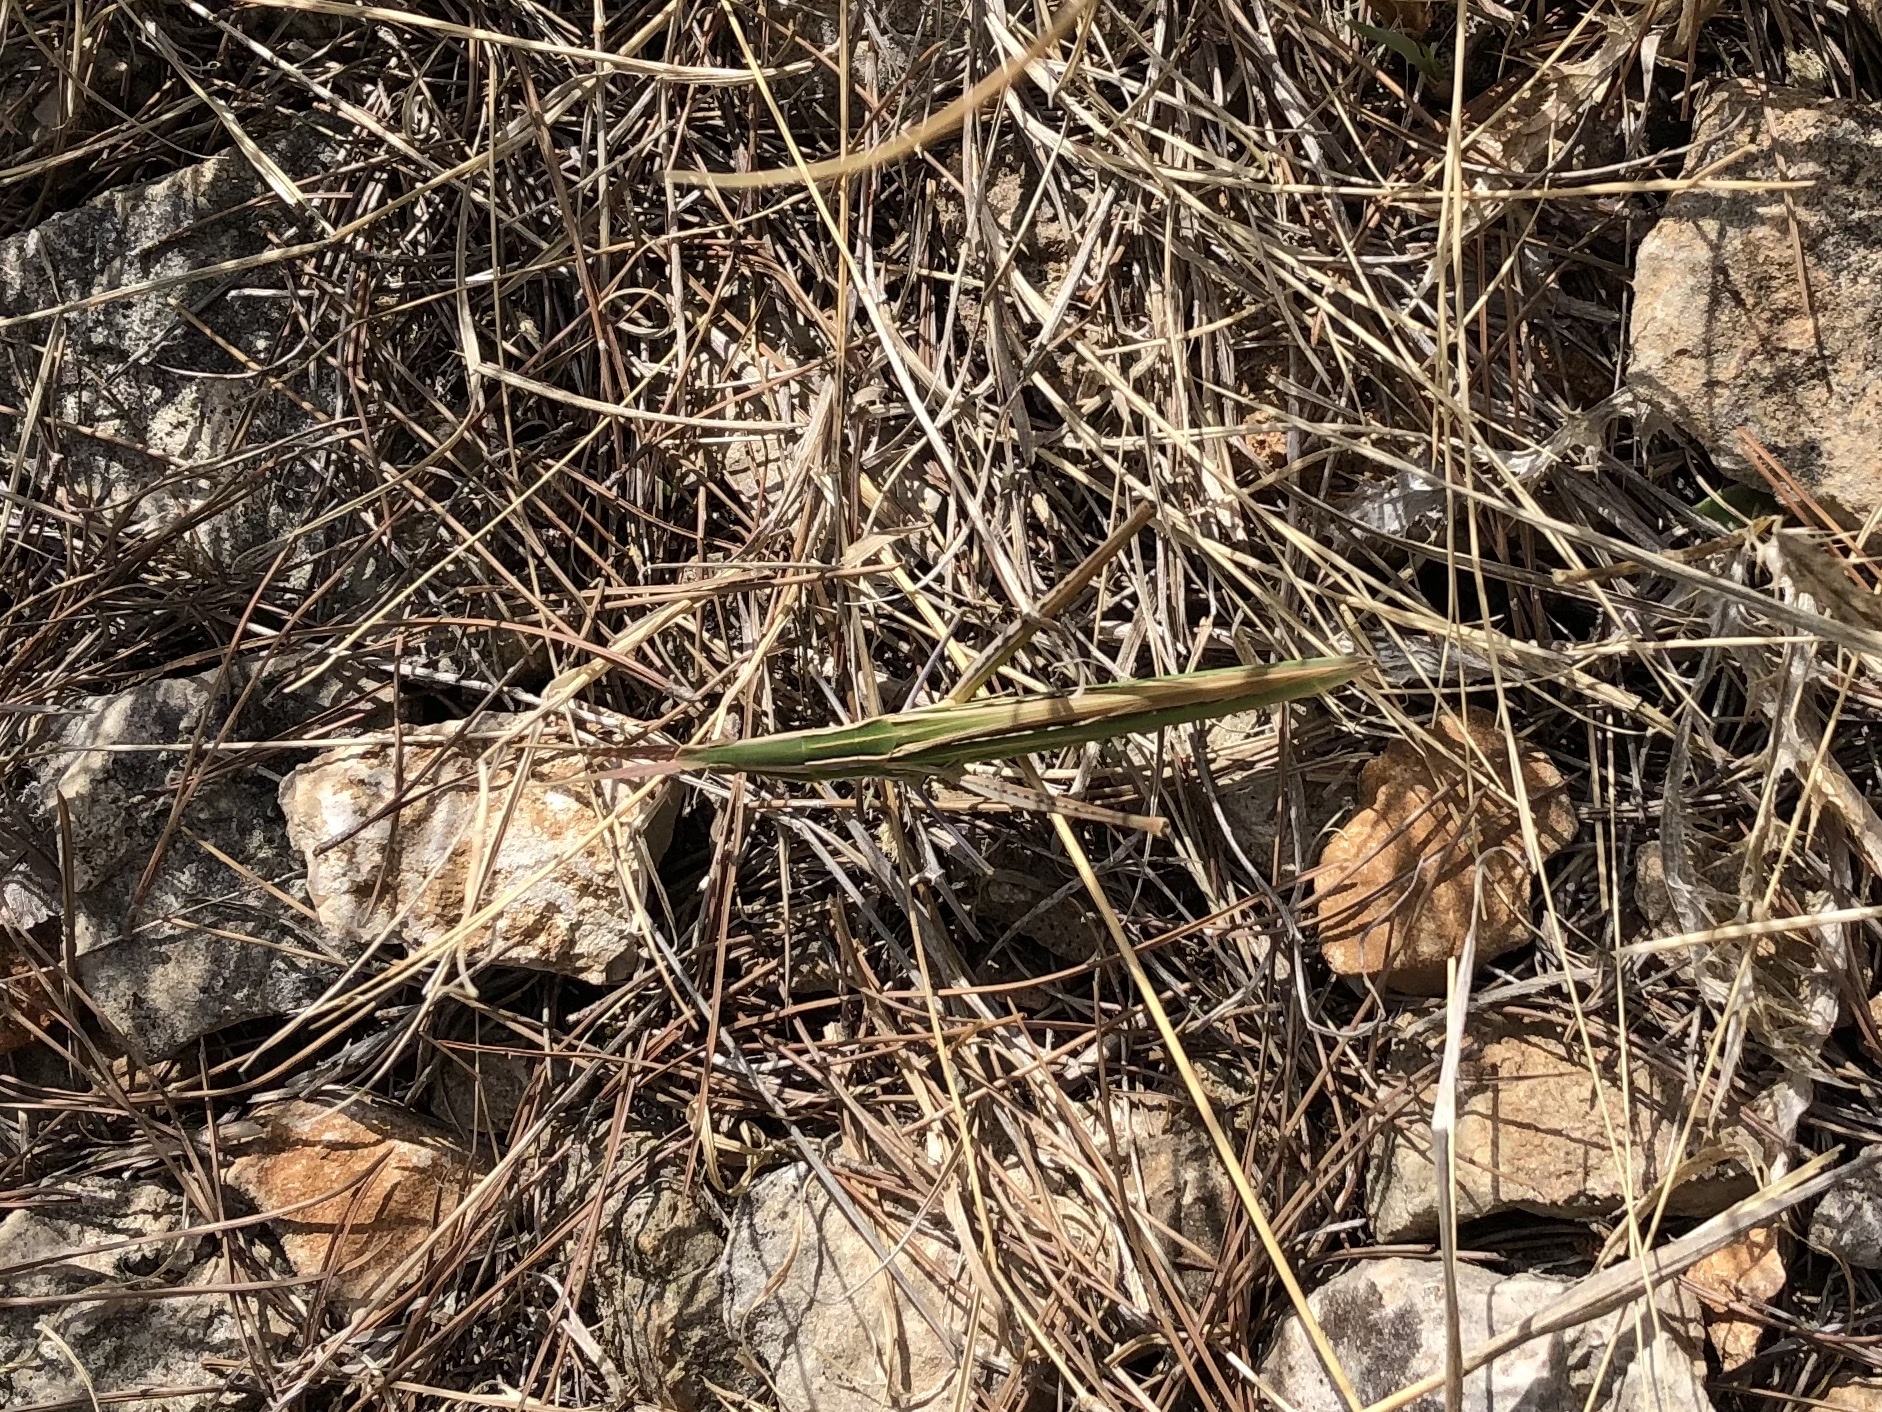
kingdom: Animalia
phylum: Arthropoda
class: Insecta
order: Orthoptera
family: Acrididae
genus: Acrida
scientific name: Acrida ungarica
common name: Common cone-headed grasshopper
